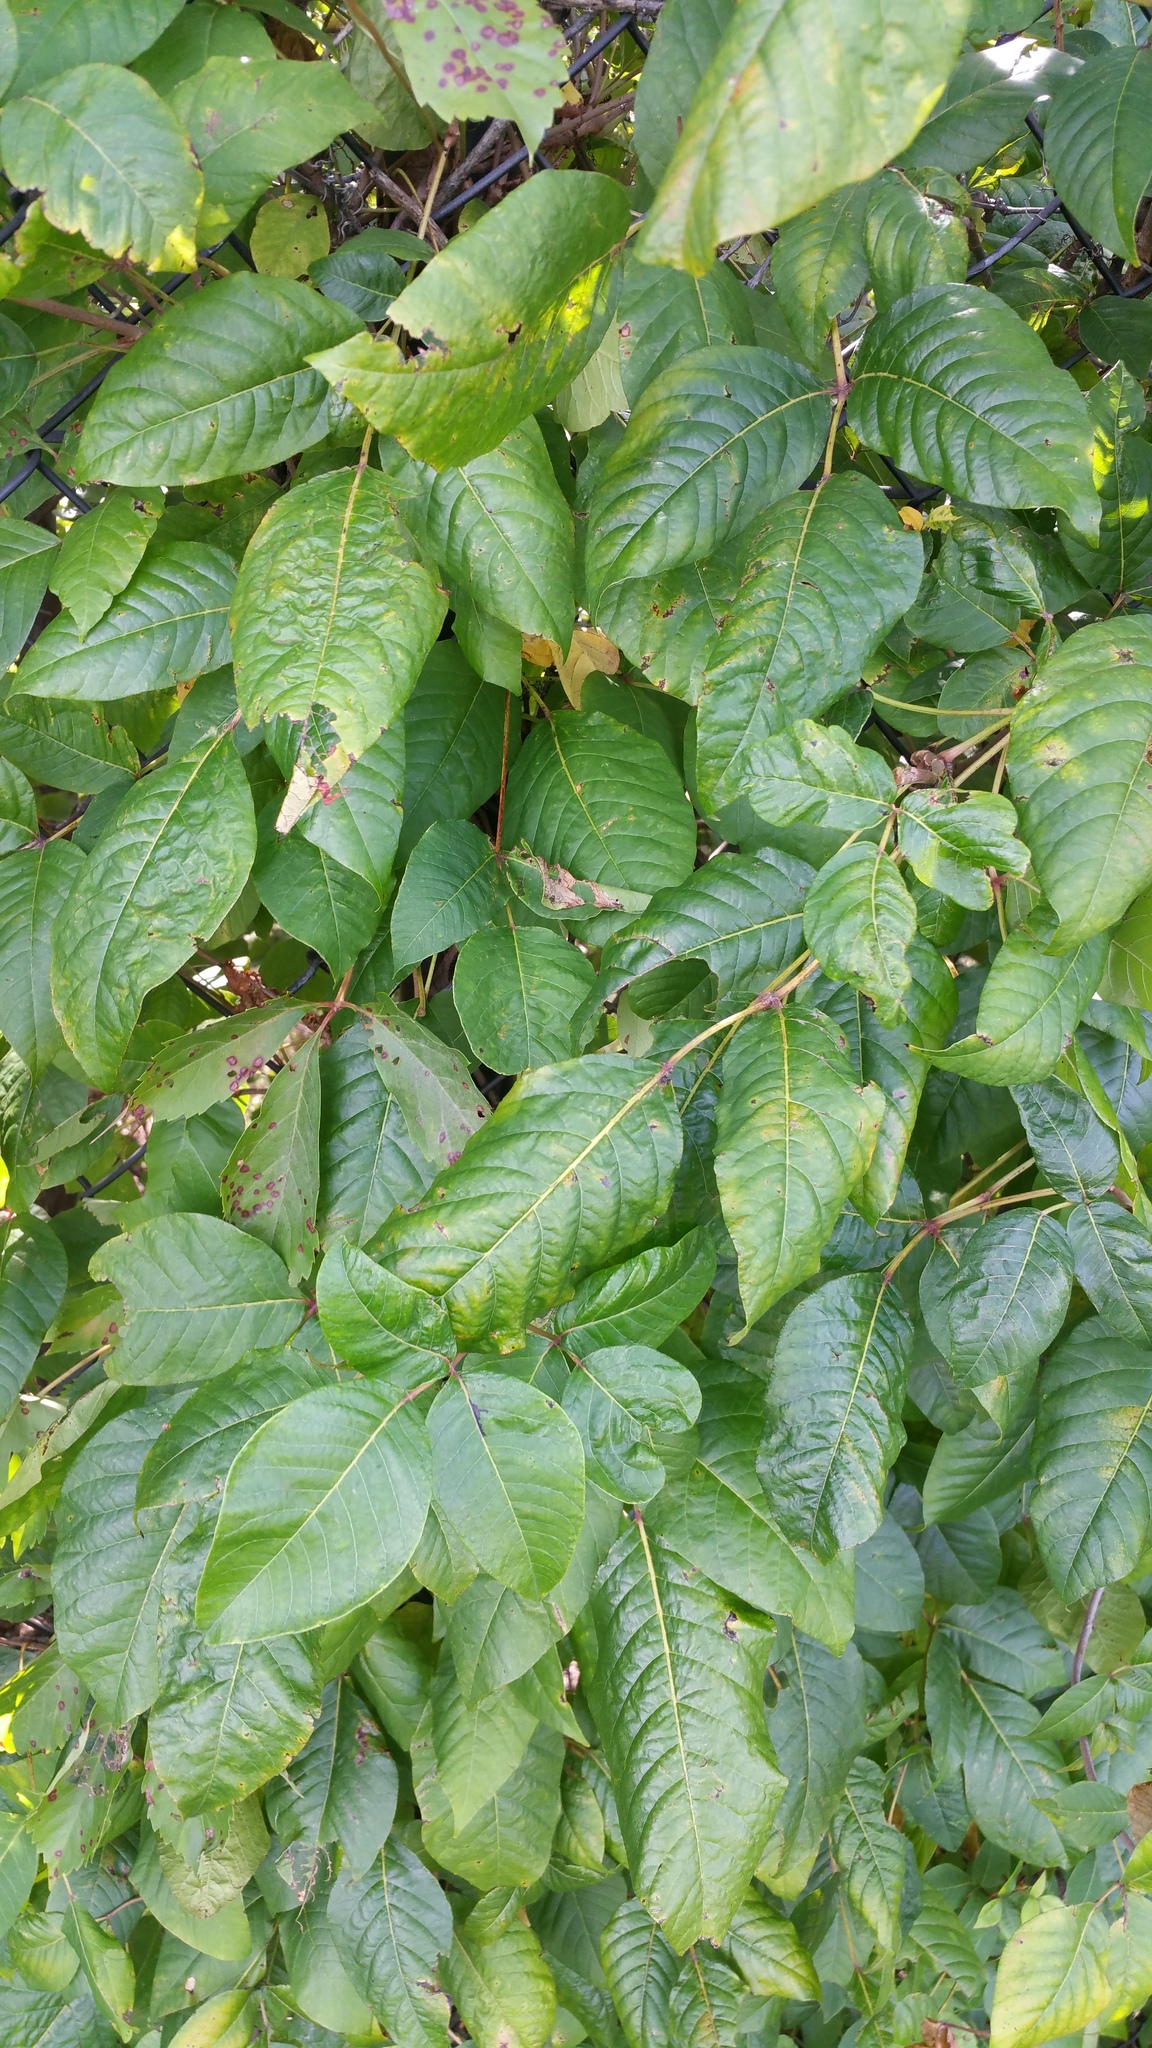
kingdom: Plantae
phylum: Tracheophyta
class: Magnoliopsida
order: Sapindales
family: Anacardiaceae
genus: Toxicodendron
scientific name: Toxicodendron radicans
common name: Poison ivy
